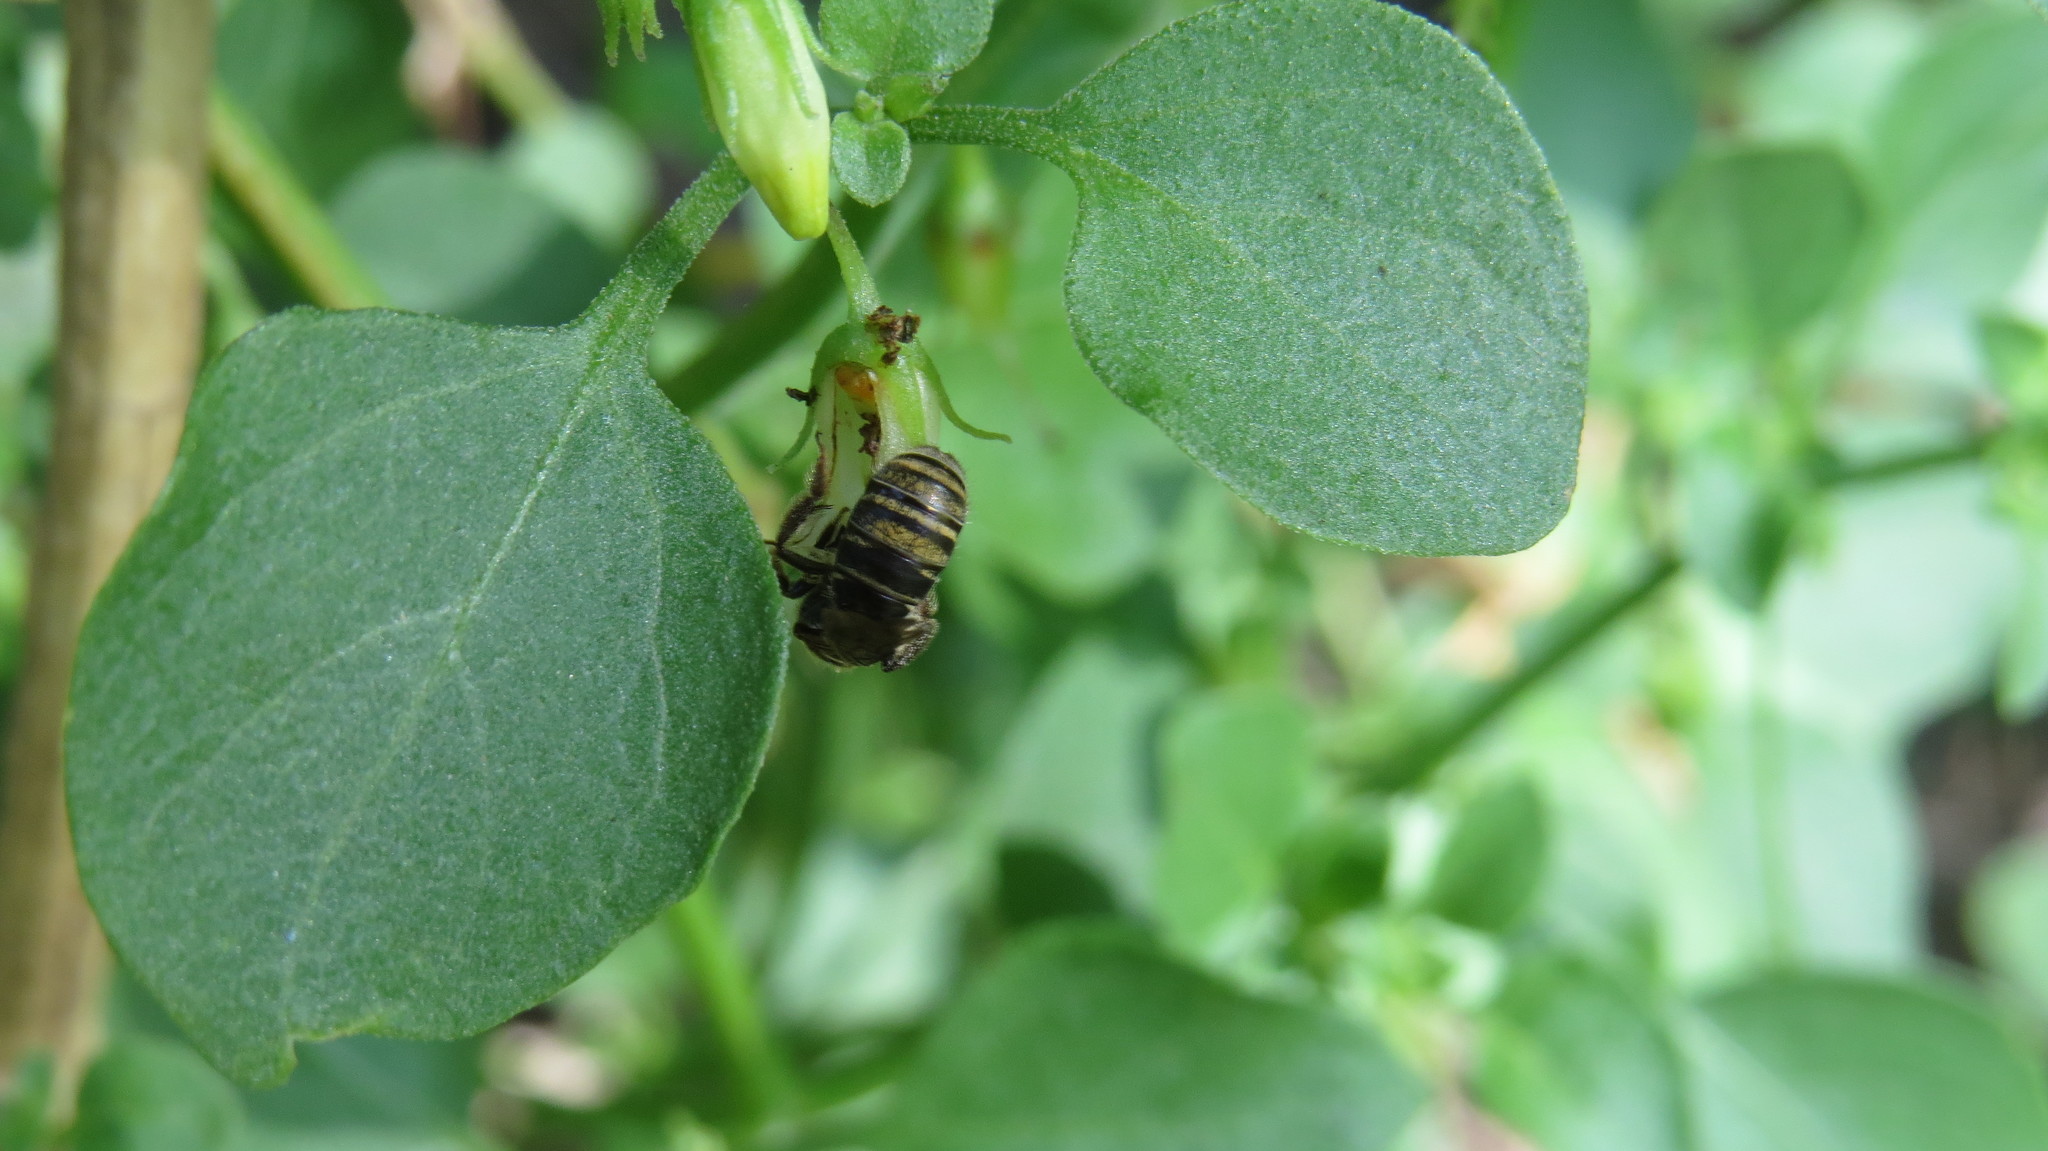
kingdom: Animalia
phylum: Arthropoda
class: Insecta
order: Hymenoptera
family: Halictidae
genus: Pseudagapostemon
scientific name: Pseudagapostemon puelchanus
